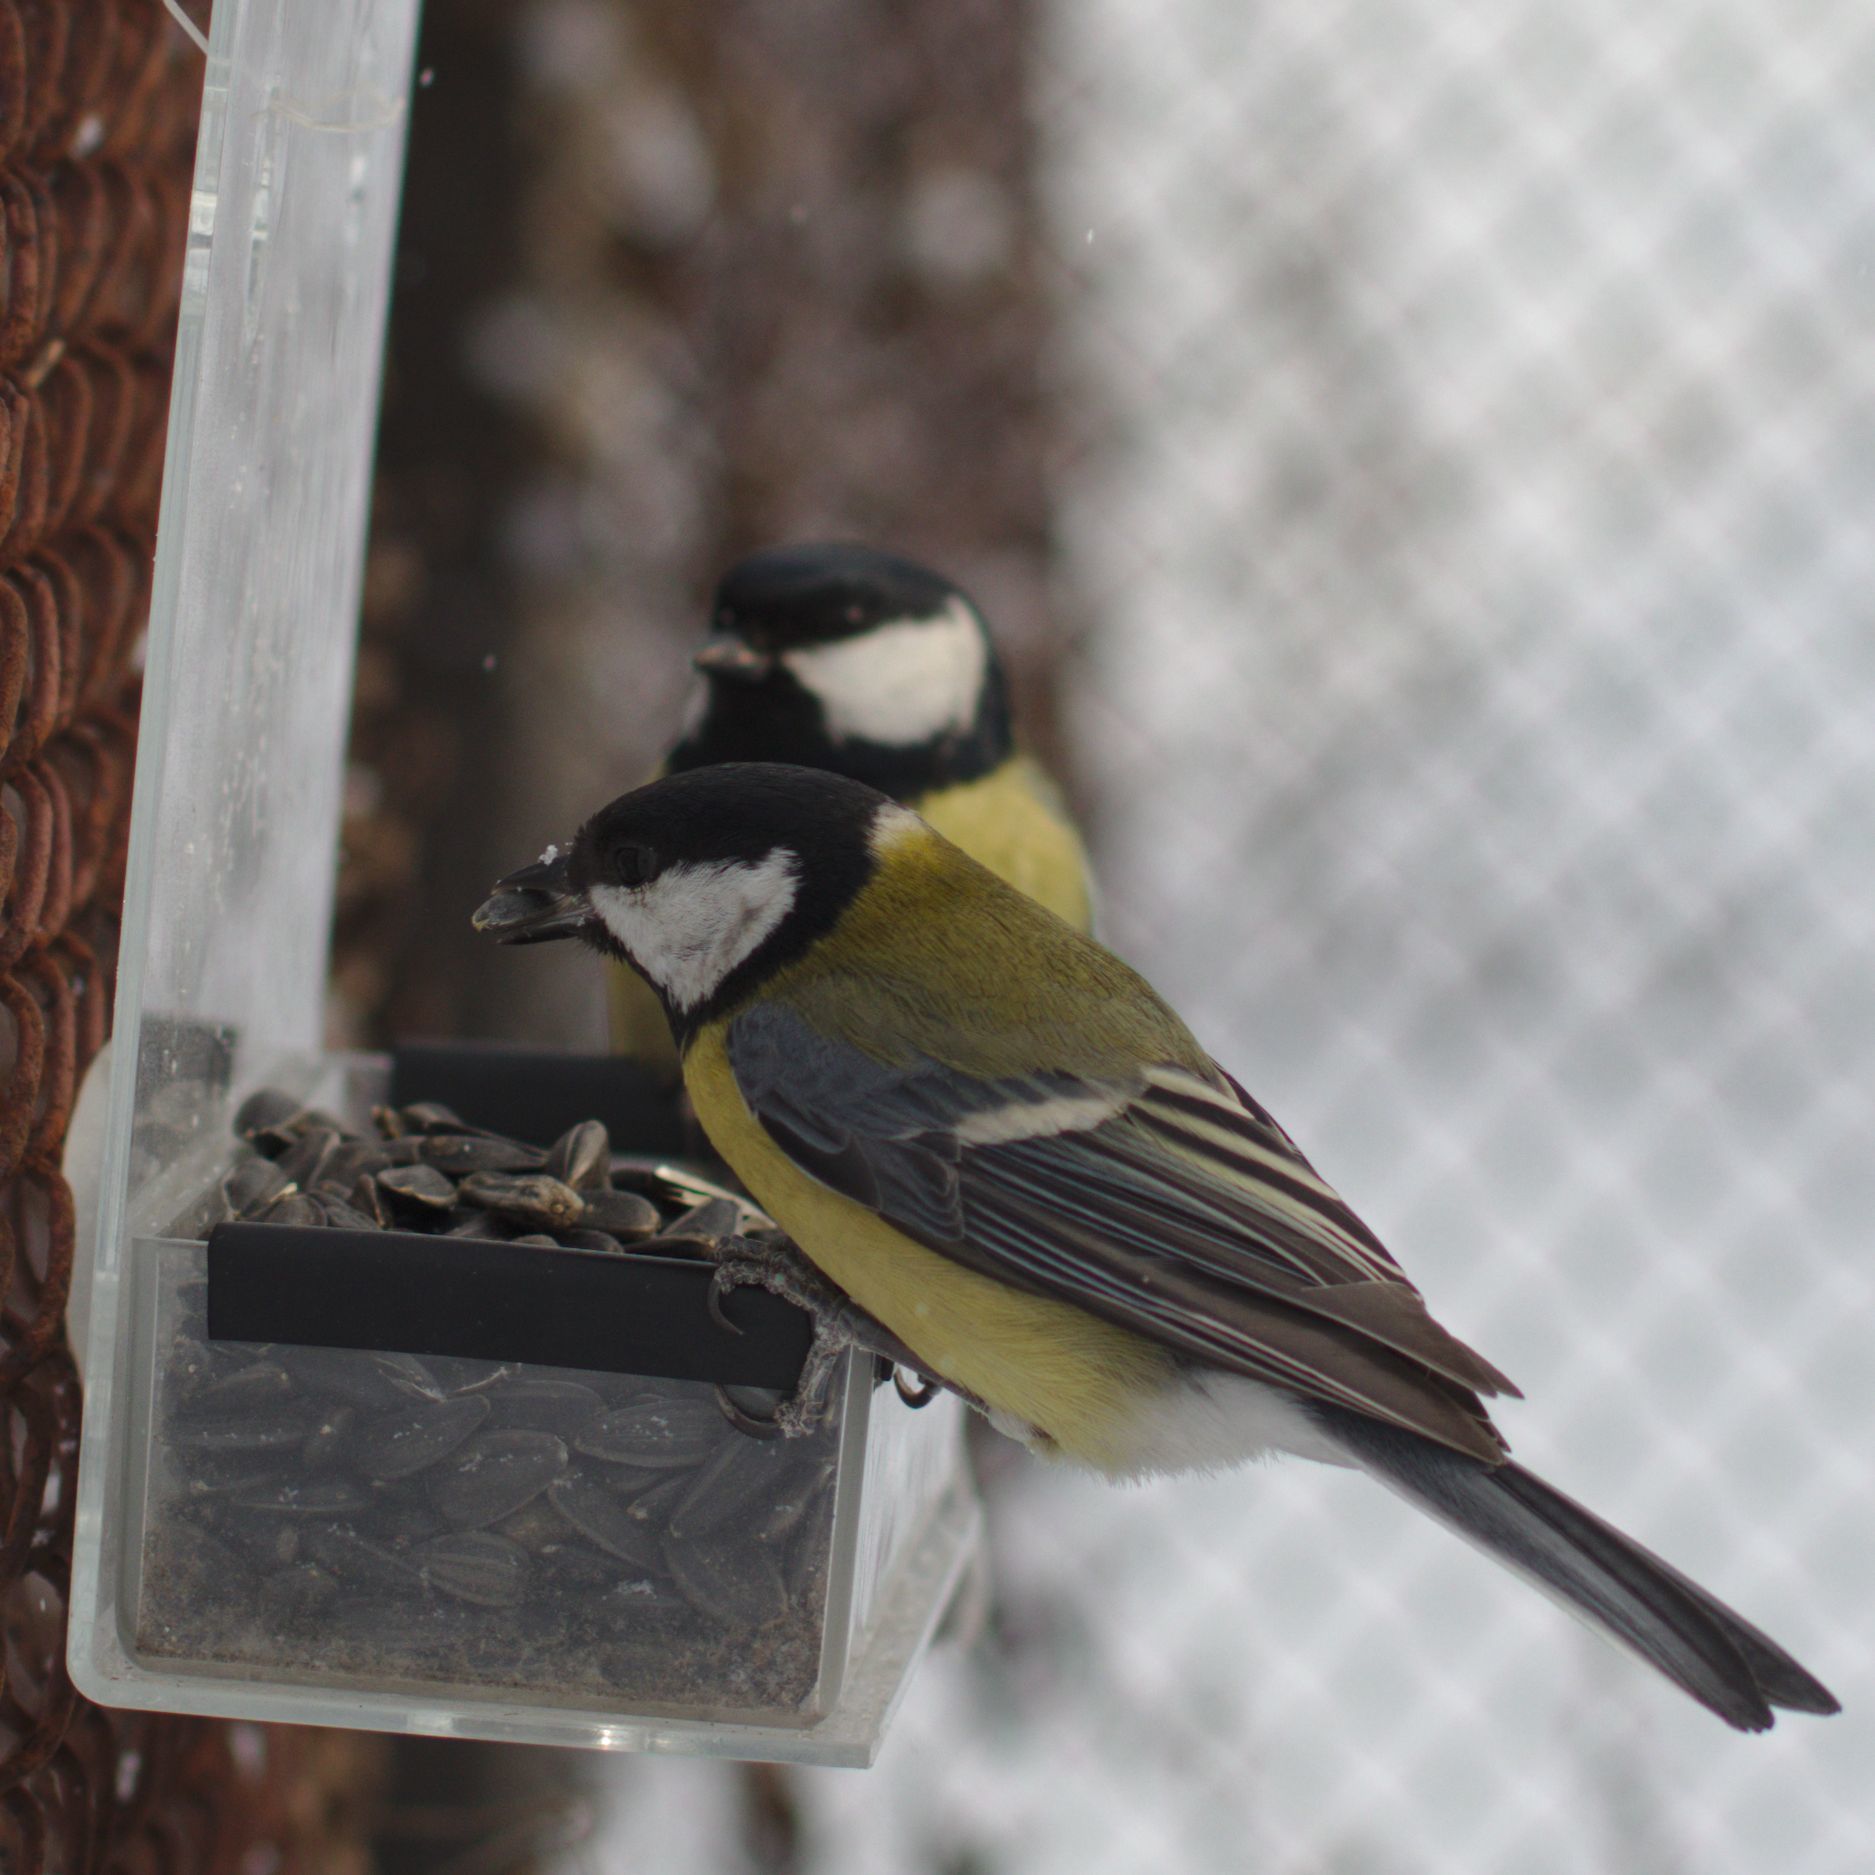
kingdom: Animalia
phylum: Chordata
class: Aves
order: Passeriformes
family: Paridae
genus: Parus
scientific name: Parus major
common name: Great tit
